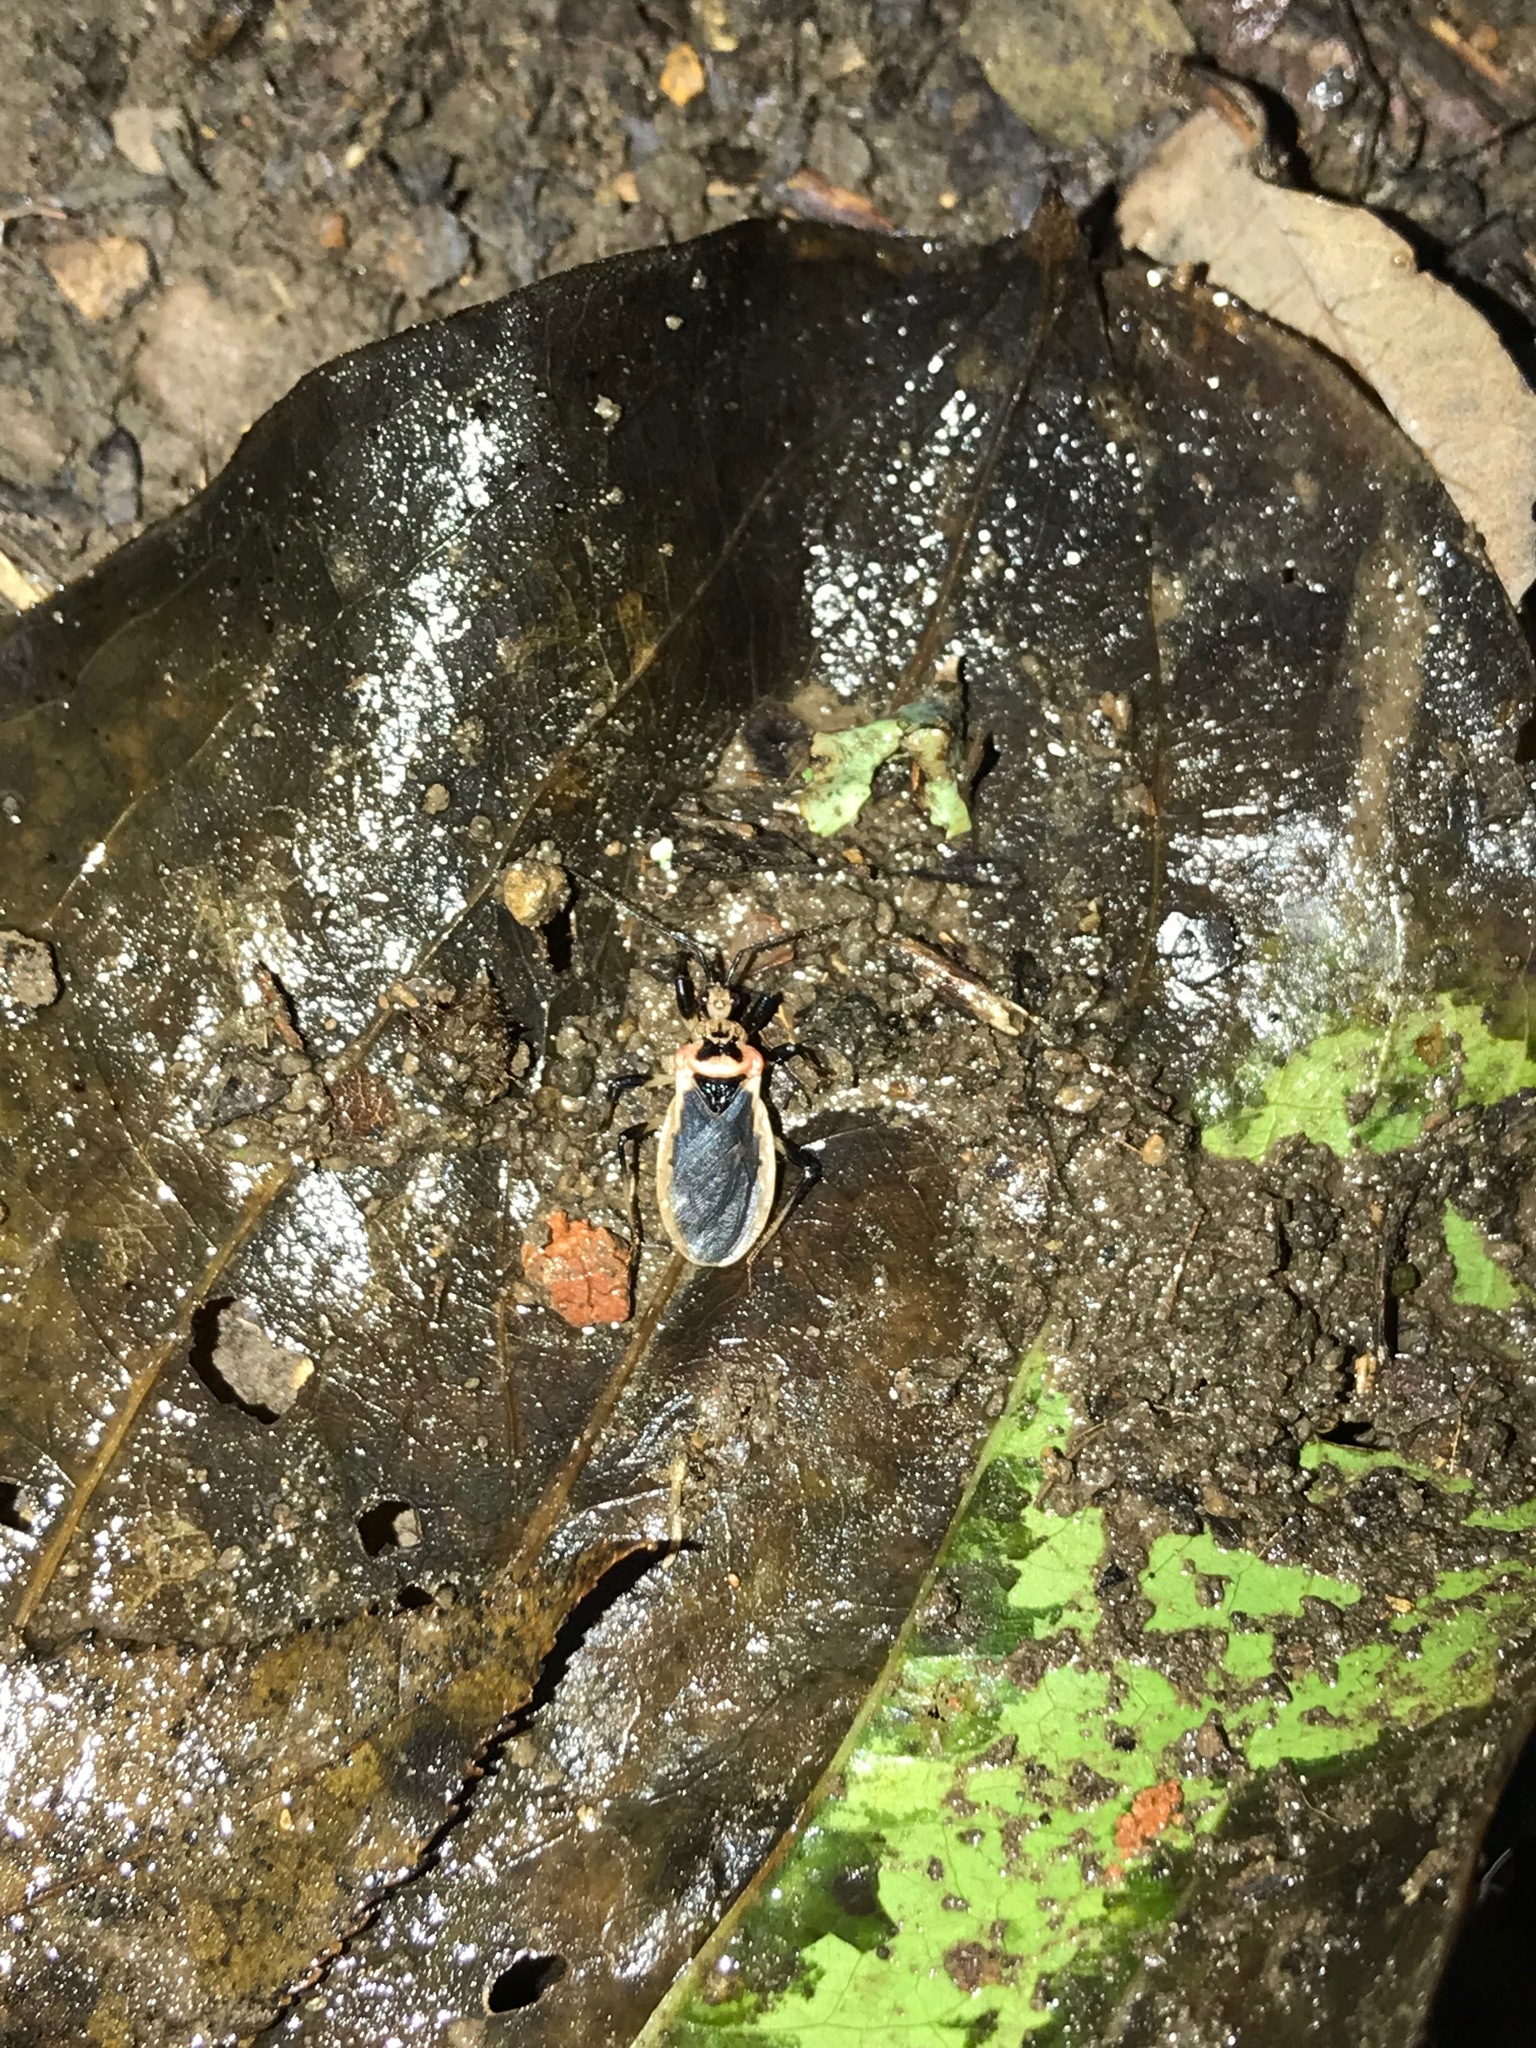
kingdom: Animalia
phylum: Arthropoda
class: Insecta
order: Hemiptera
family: Reduviidae
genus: Rhiginia
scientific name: Rhiginia cruciata
